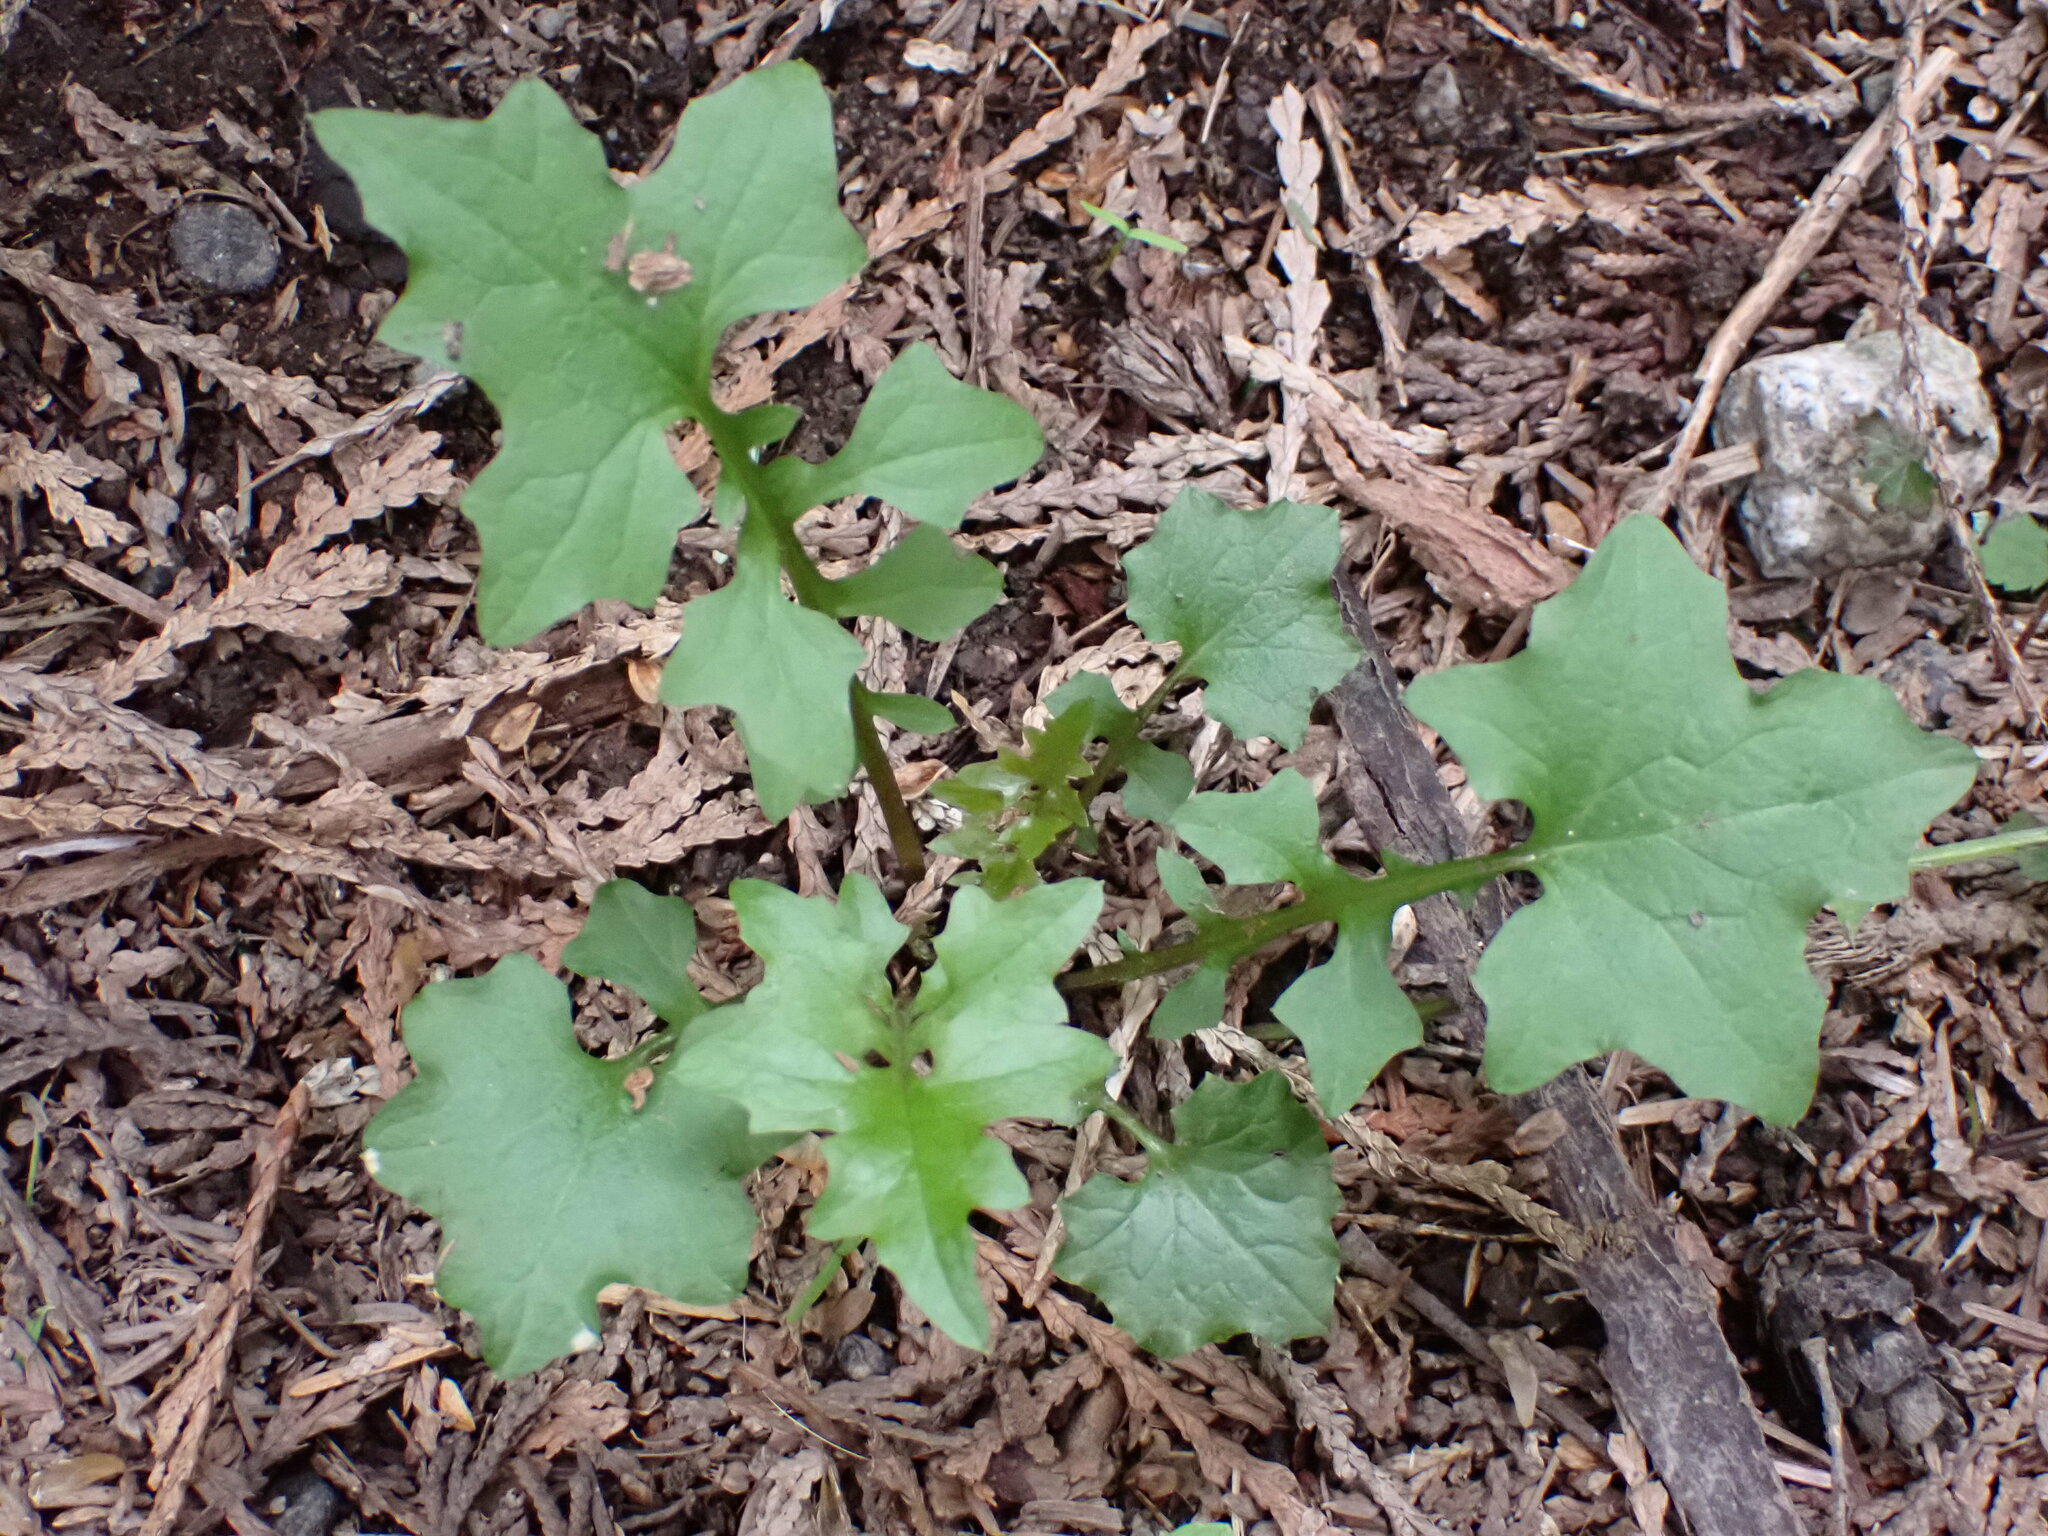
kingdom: Plantae
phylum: Tracheophyta
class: Magnoliopsida
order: Asterales
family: Asteraceae
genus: Mycelis
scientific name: Mycelis muralis
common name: Wall lettuce
